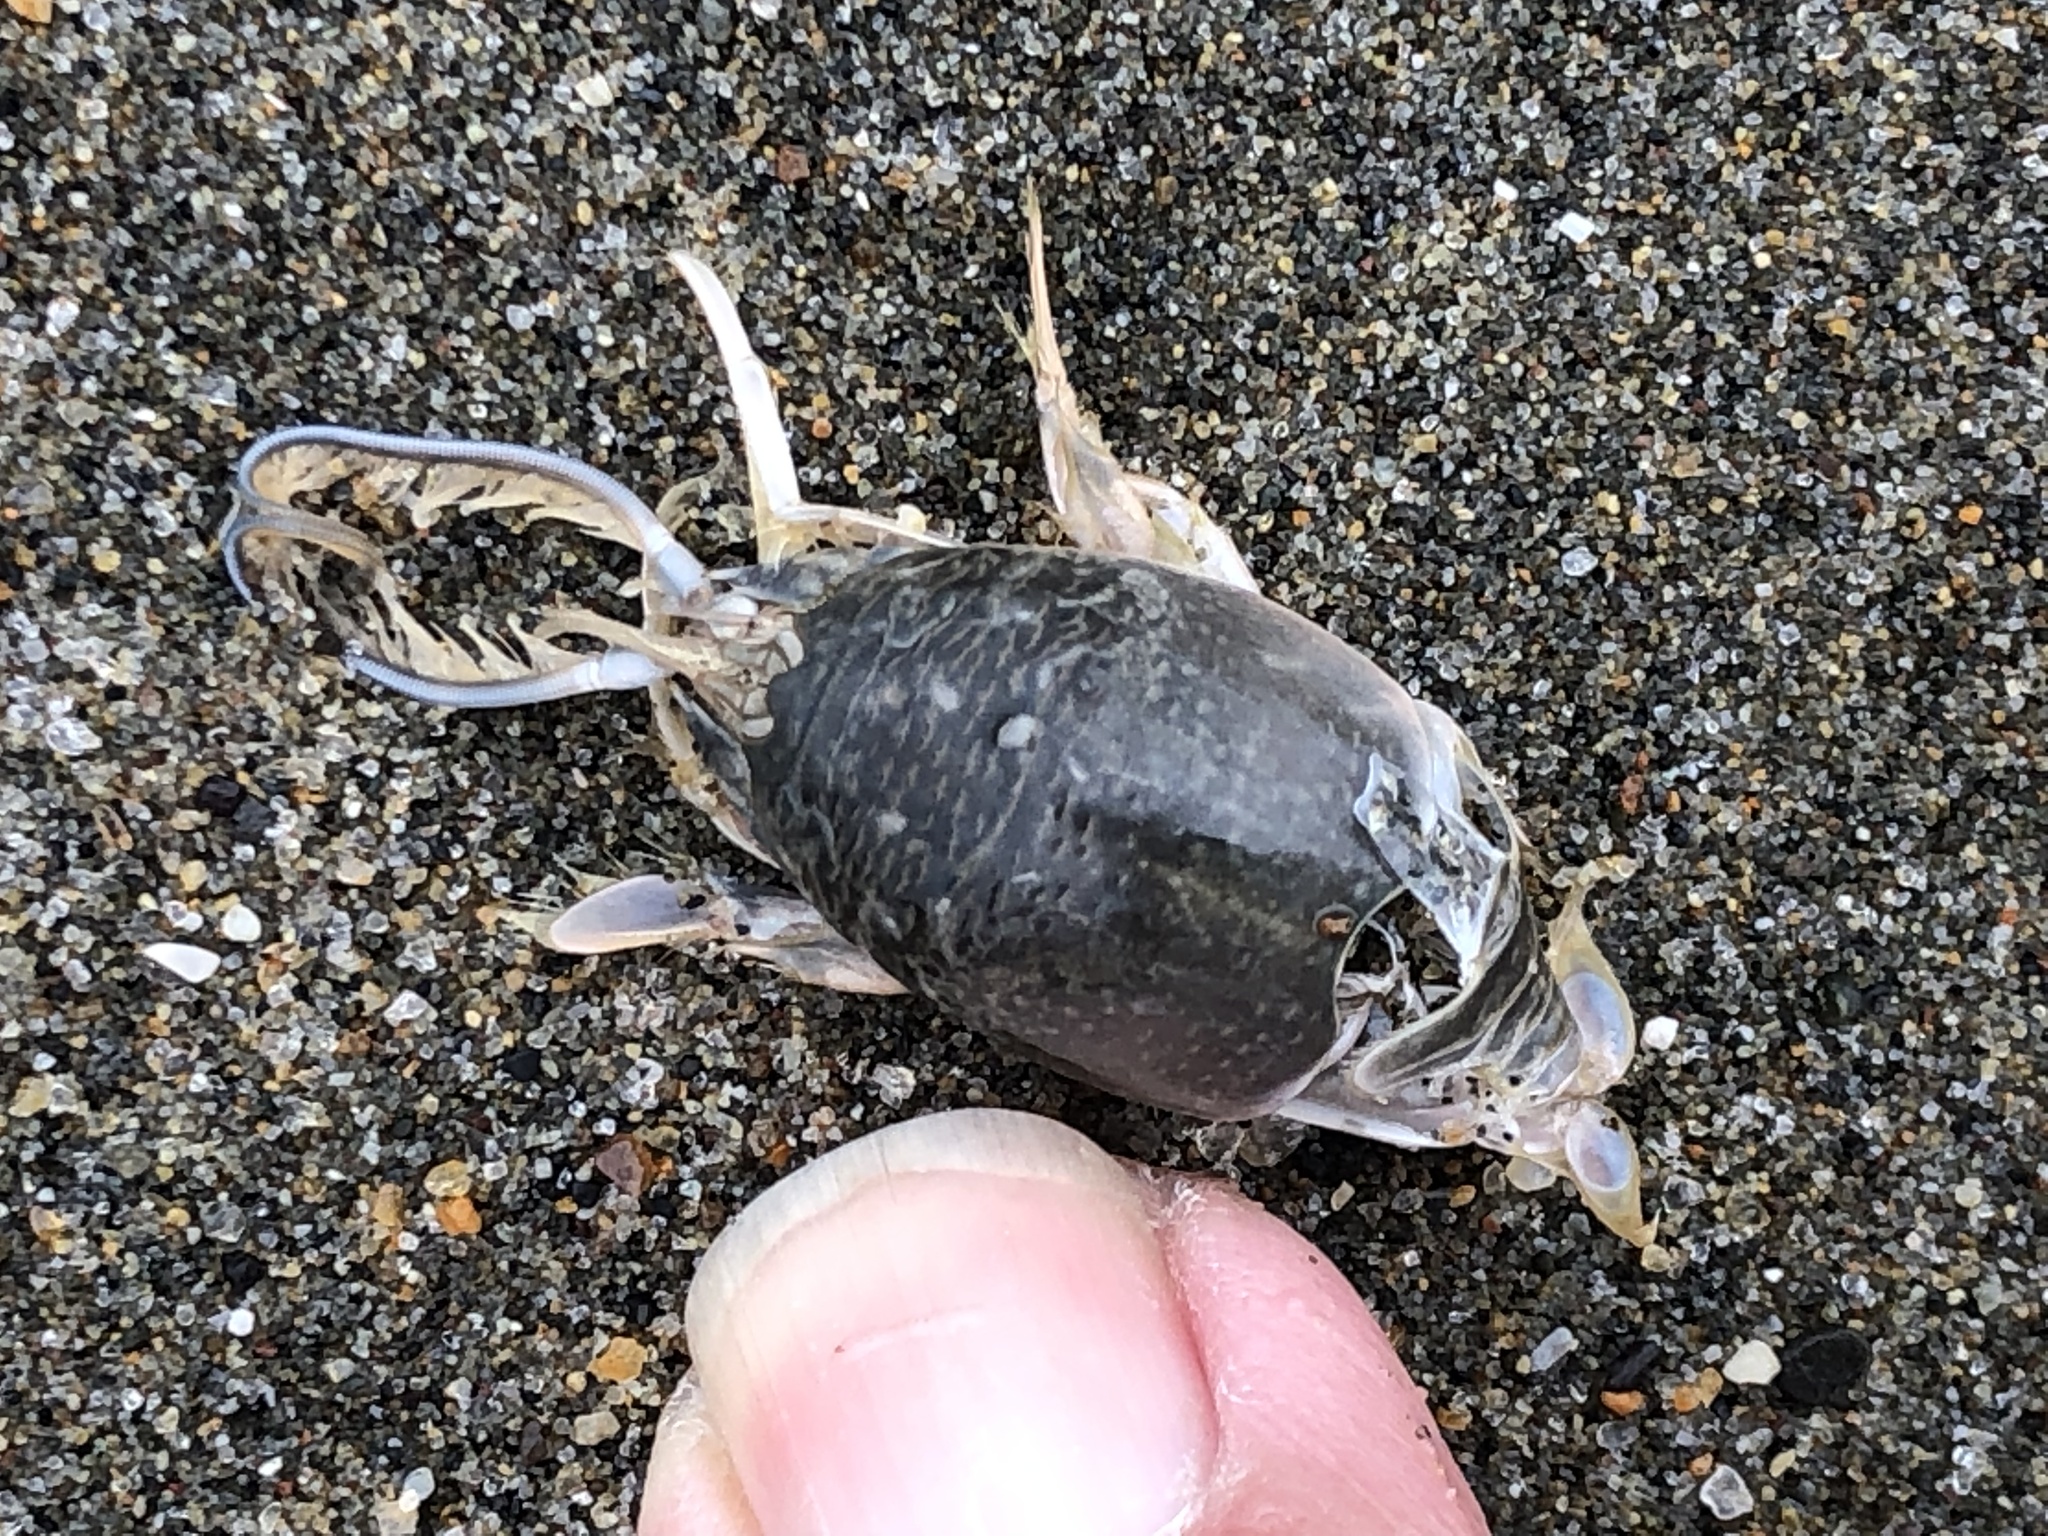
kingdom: Animalia
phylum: Arthropoda
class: Malacostraca
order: Decapoda
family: Hippidae
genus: Emerita
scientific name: Emerita analoga
